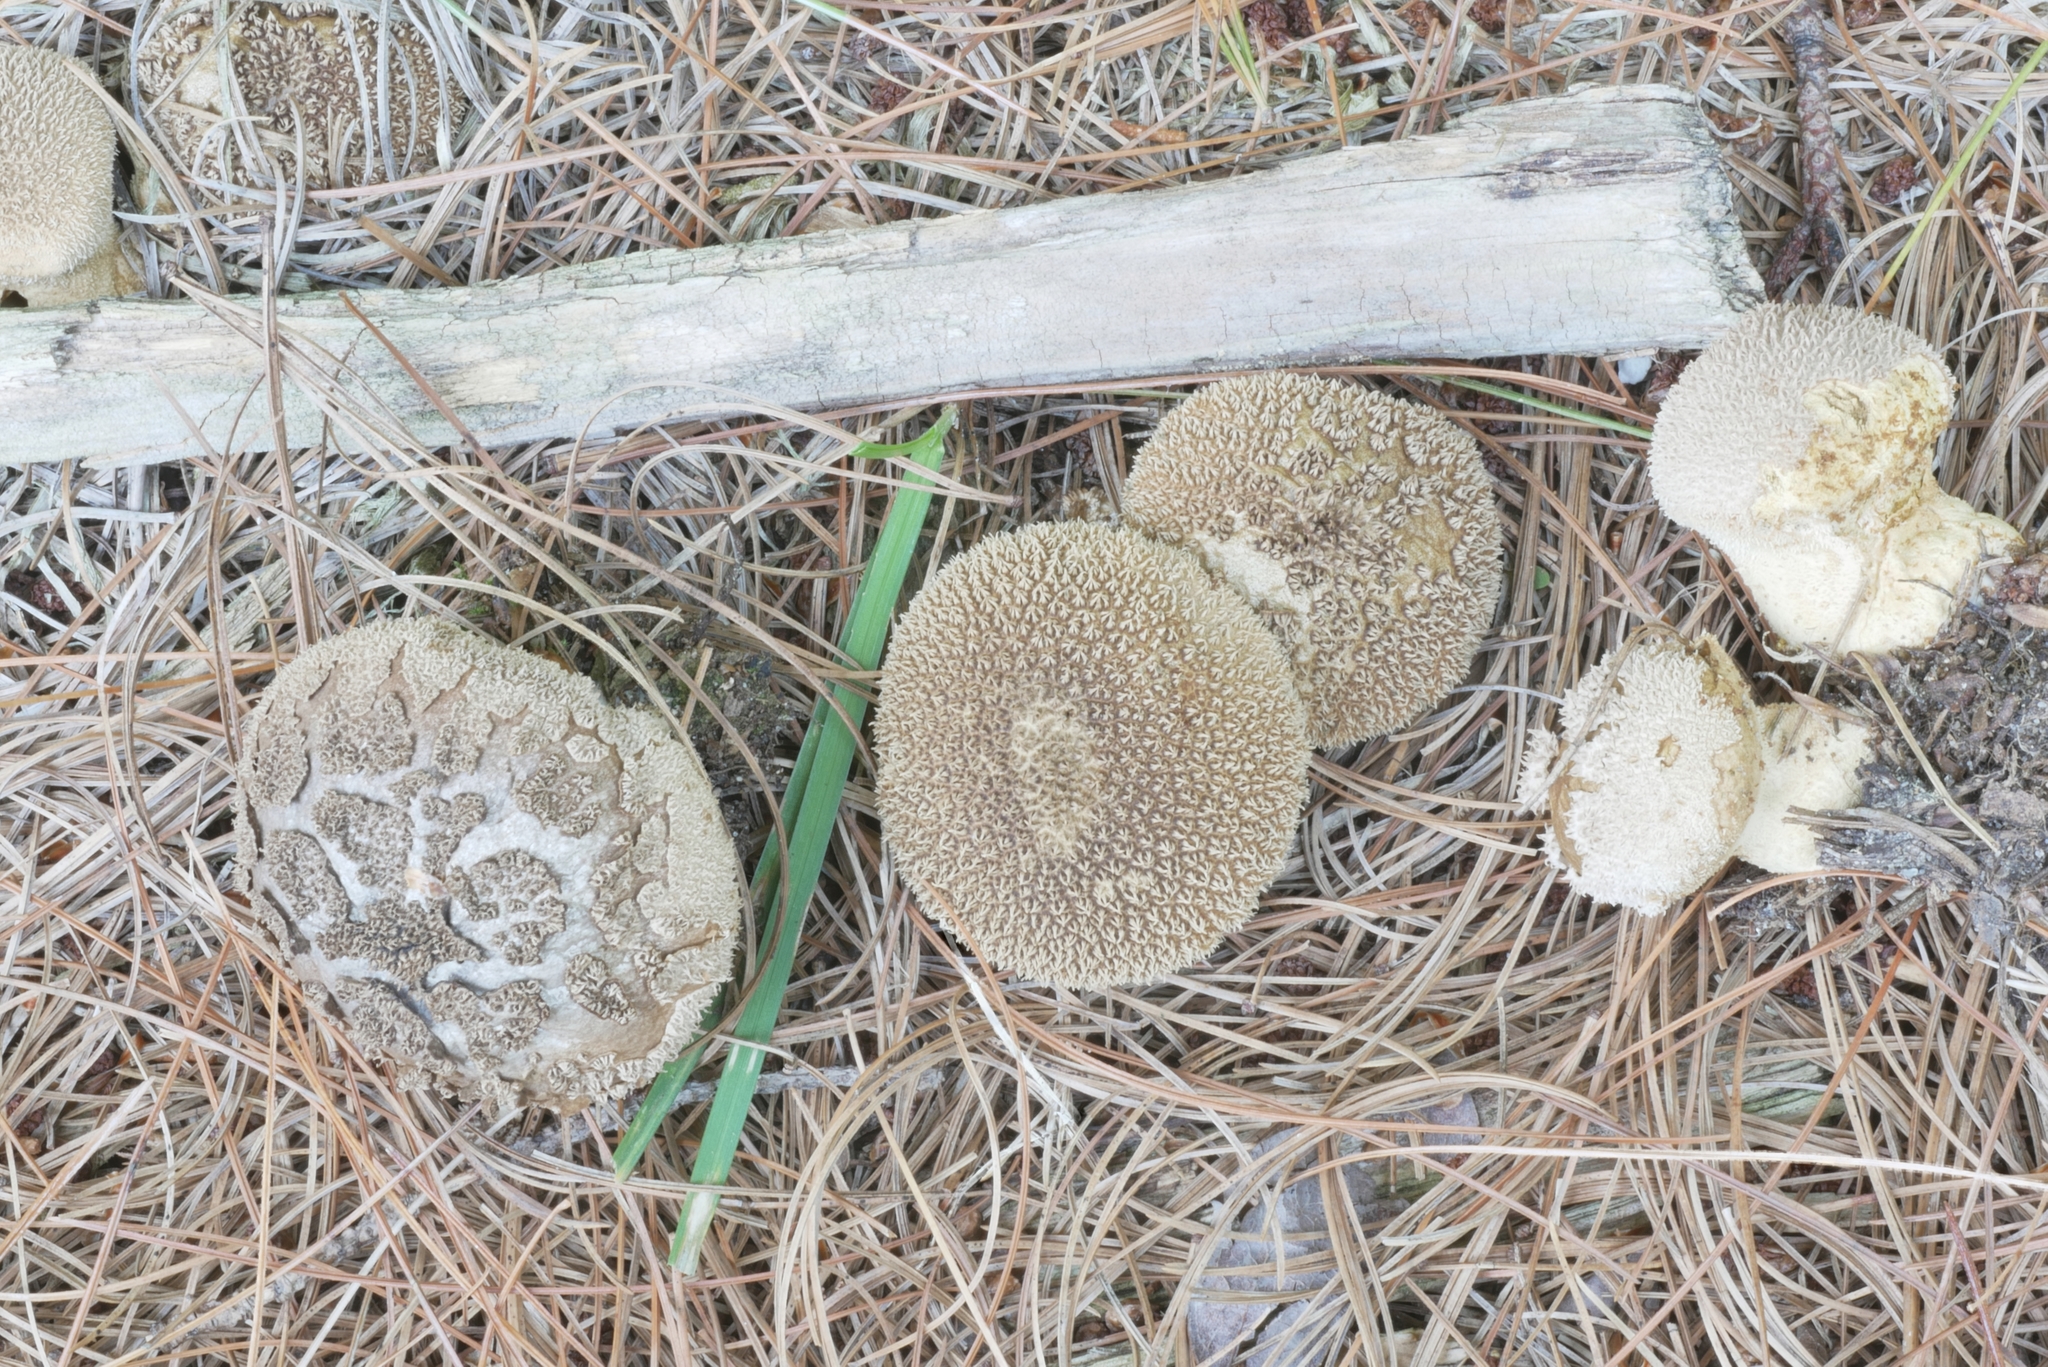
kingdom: Fungi
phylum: Basidiomycota
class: Agaricomycetes
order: Agaricales
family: Lycoperdaceae
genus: Lycoperdon
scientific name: Lycoperdon echinatum
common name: Hedgehog puffball
